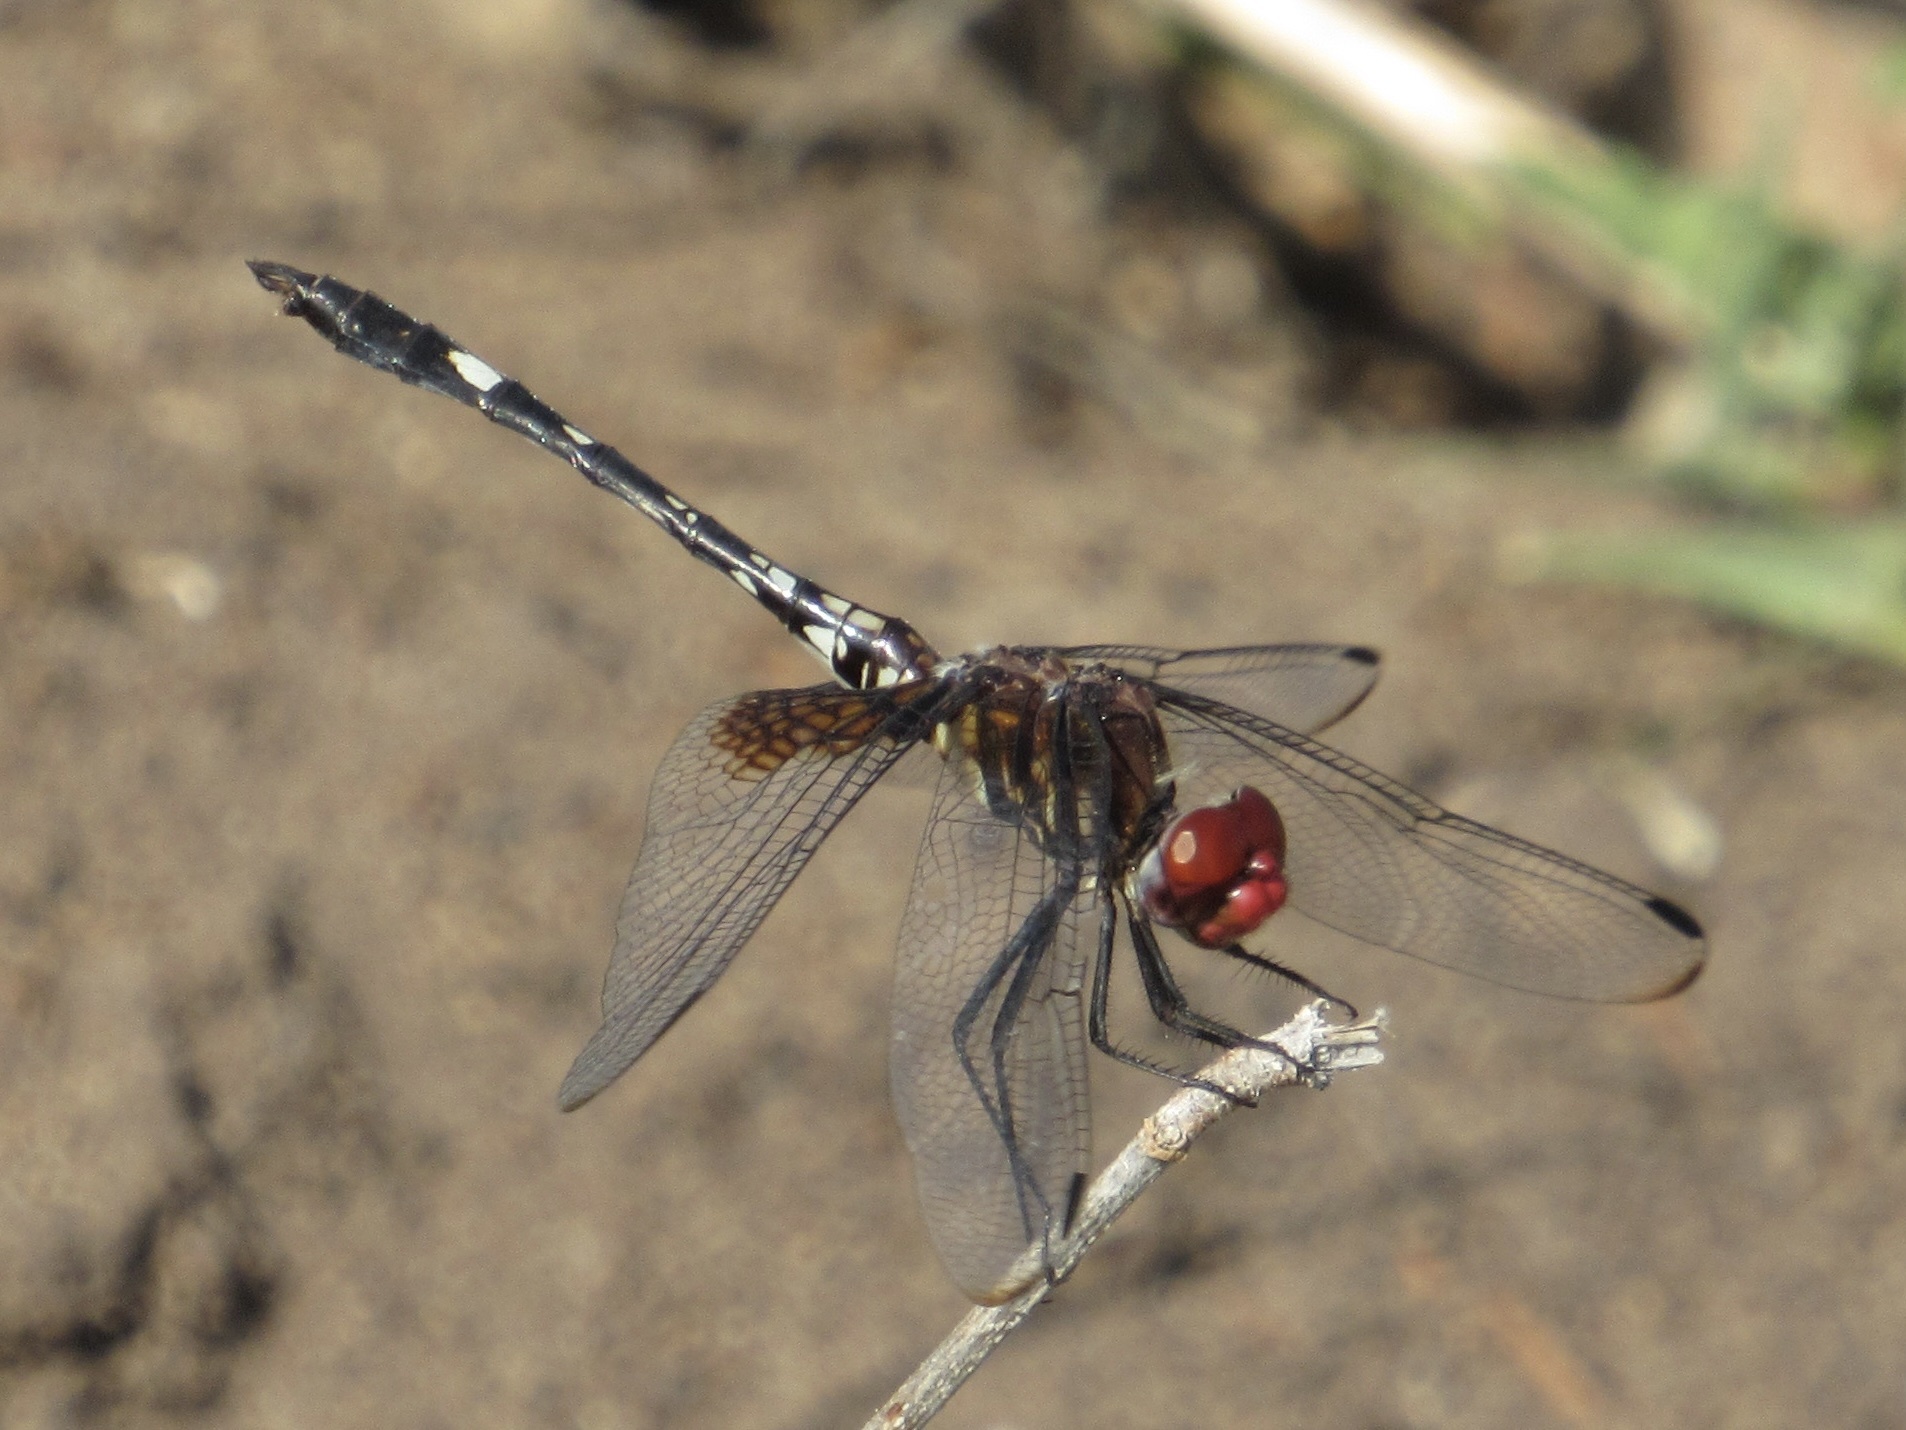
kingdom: Animalia
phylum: Arthropoda
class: Insecta
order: Odonata
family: Libellulidae
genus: Dythemis
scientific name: Dythemis fugax
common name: Checkered setwing
